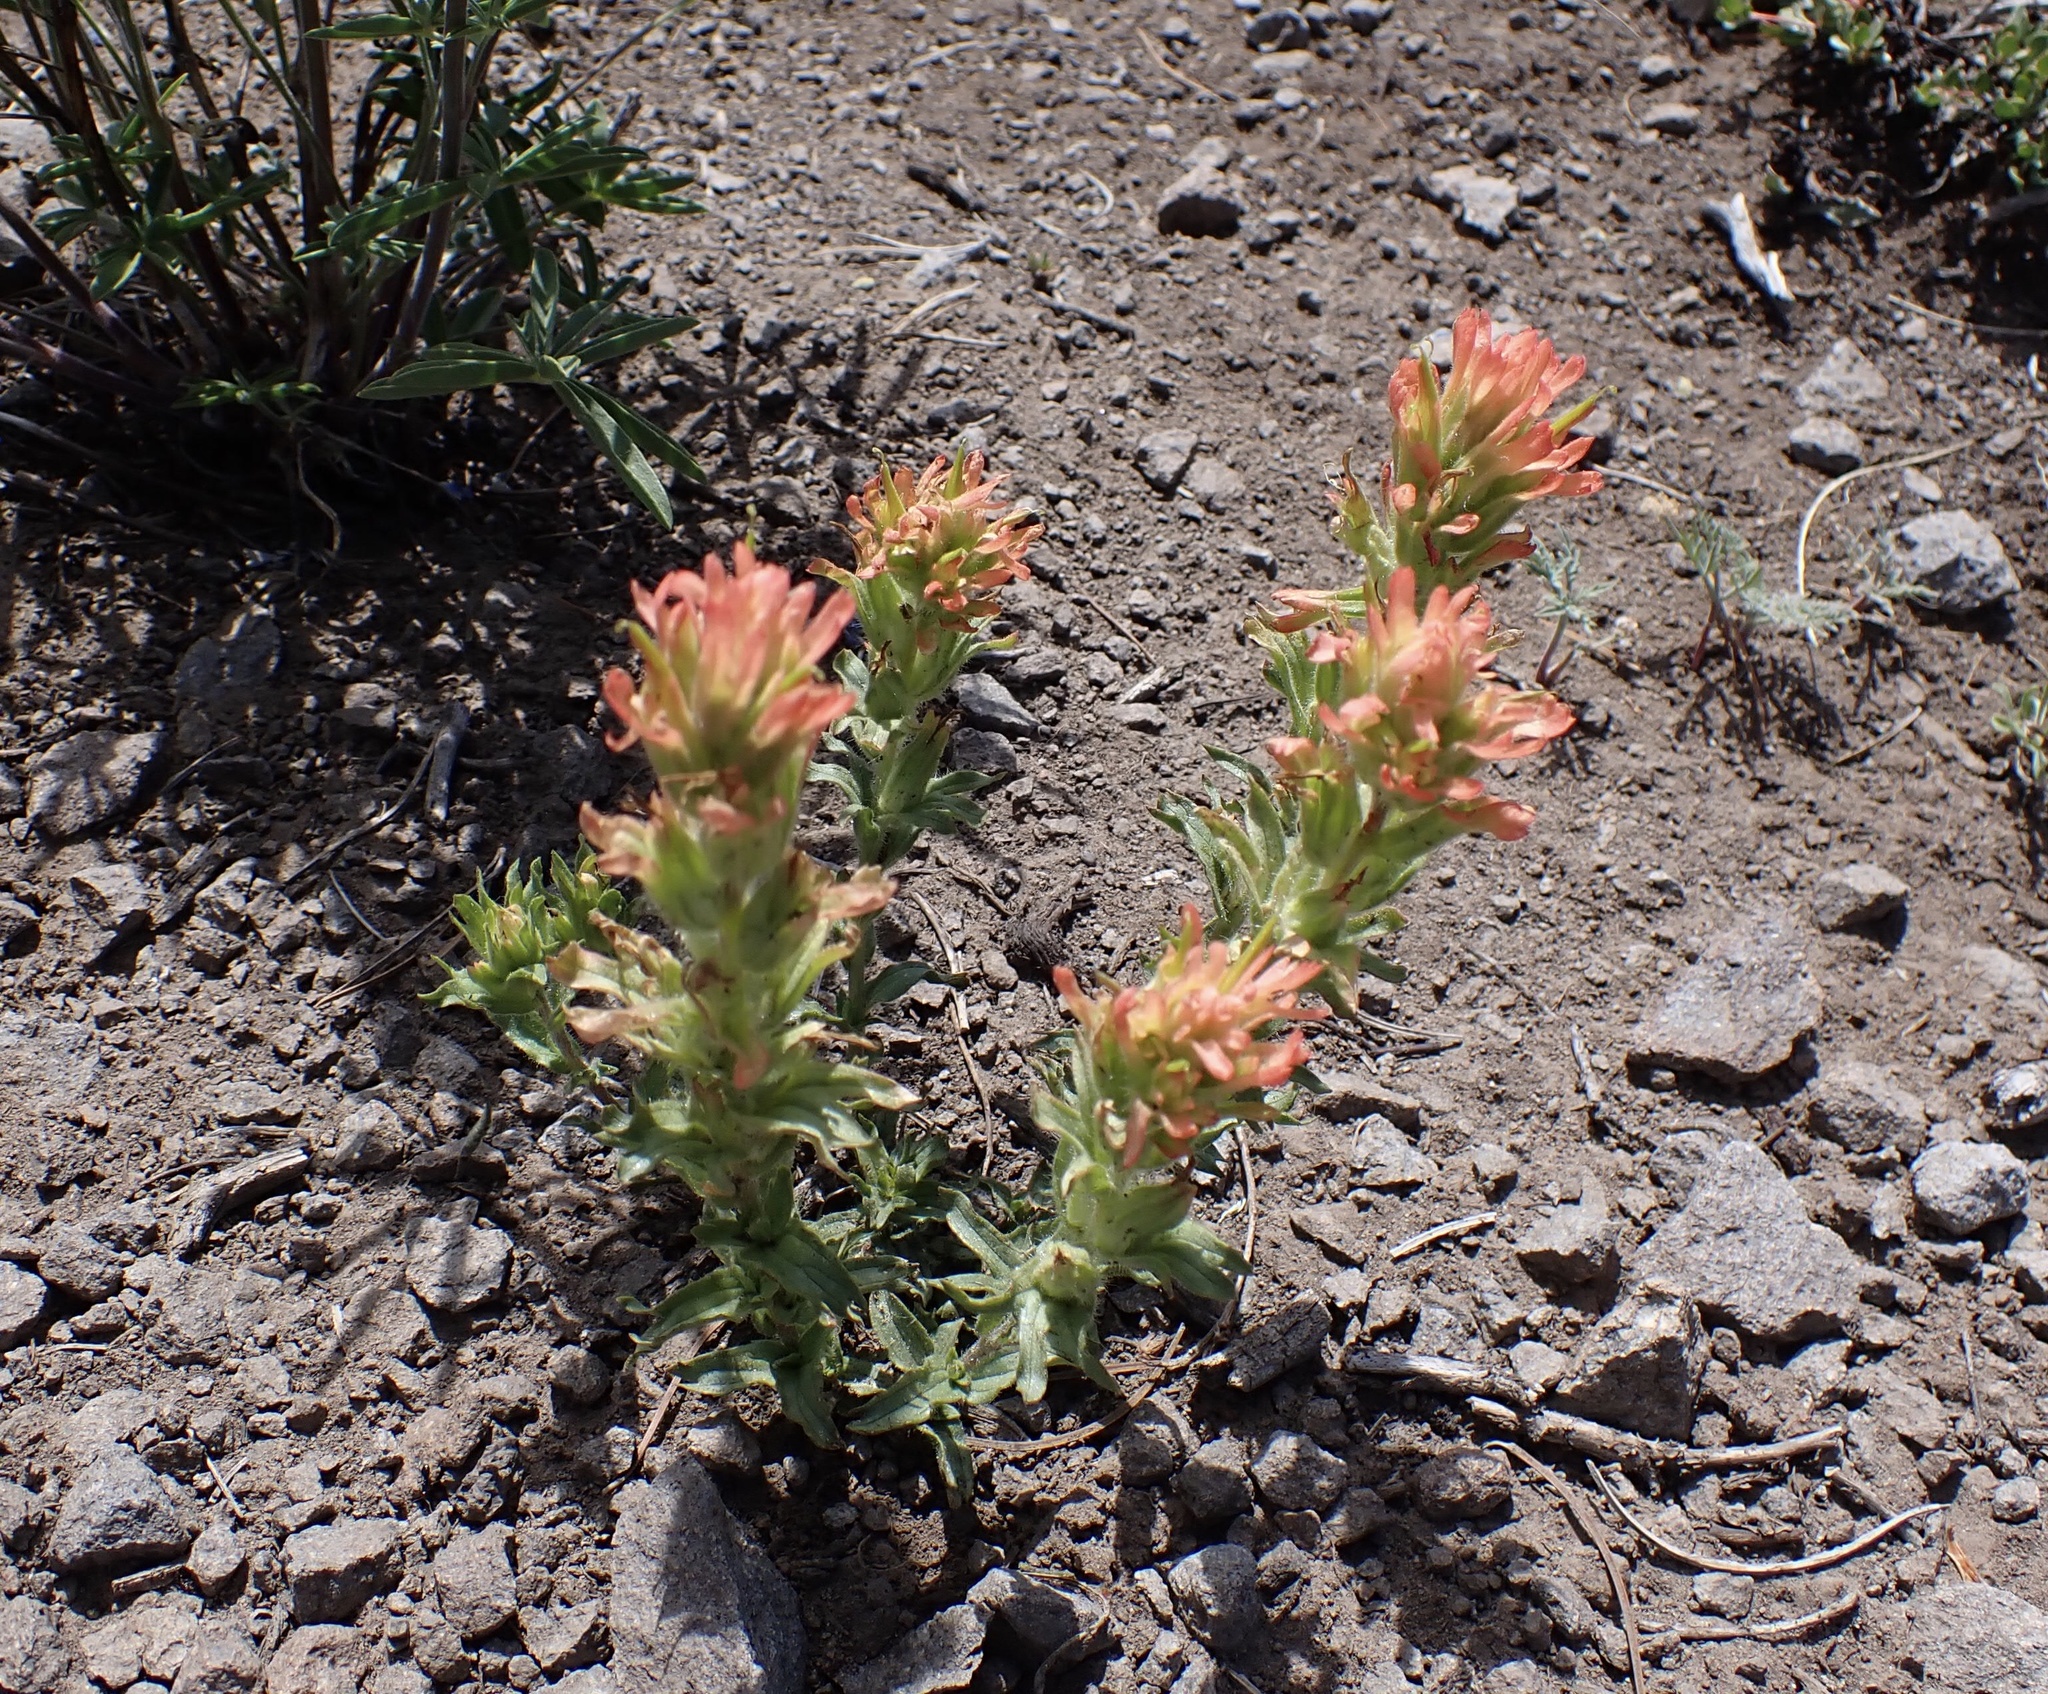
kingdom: Plantae
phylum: Tracheophyta
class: Magnoliopsida
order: Lamiales
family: Orobanchaceae
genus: Castilleja
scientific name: Castilleja applegatei
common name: Wavy-leaf paintbrush
